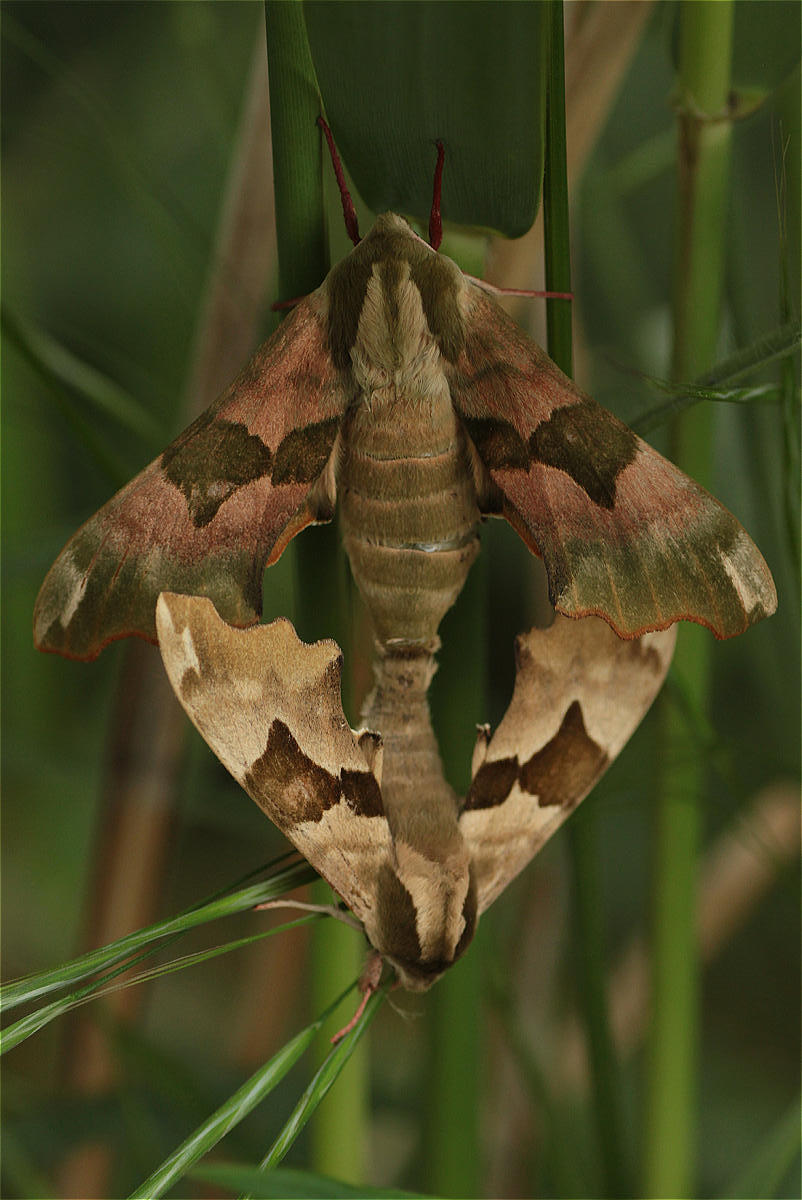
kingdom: Animalia
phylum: Arthropoda
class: Insecta
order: Lepidoptera
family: Sphingidae
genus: Mimas
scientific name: Mimas tiliae
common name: Lime hawk-moth
